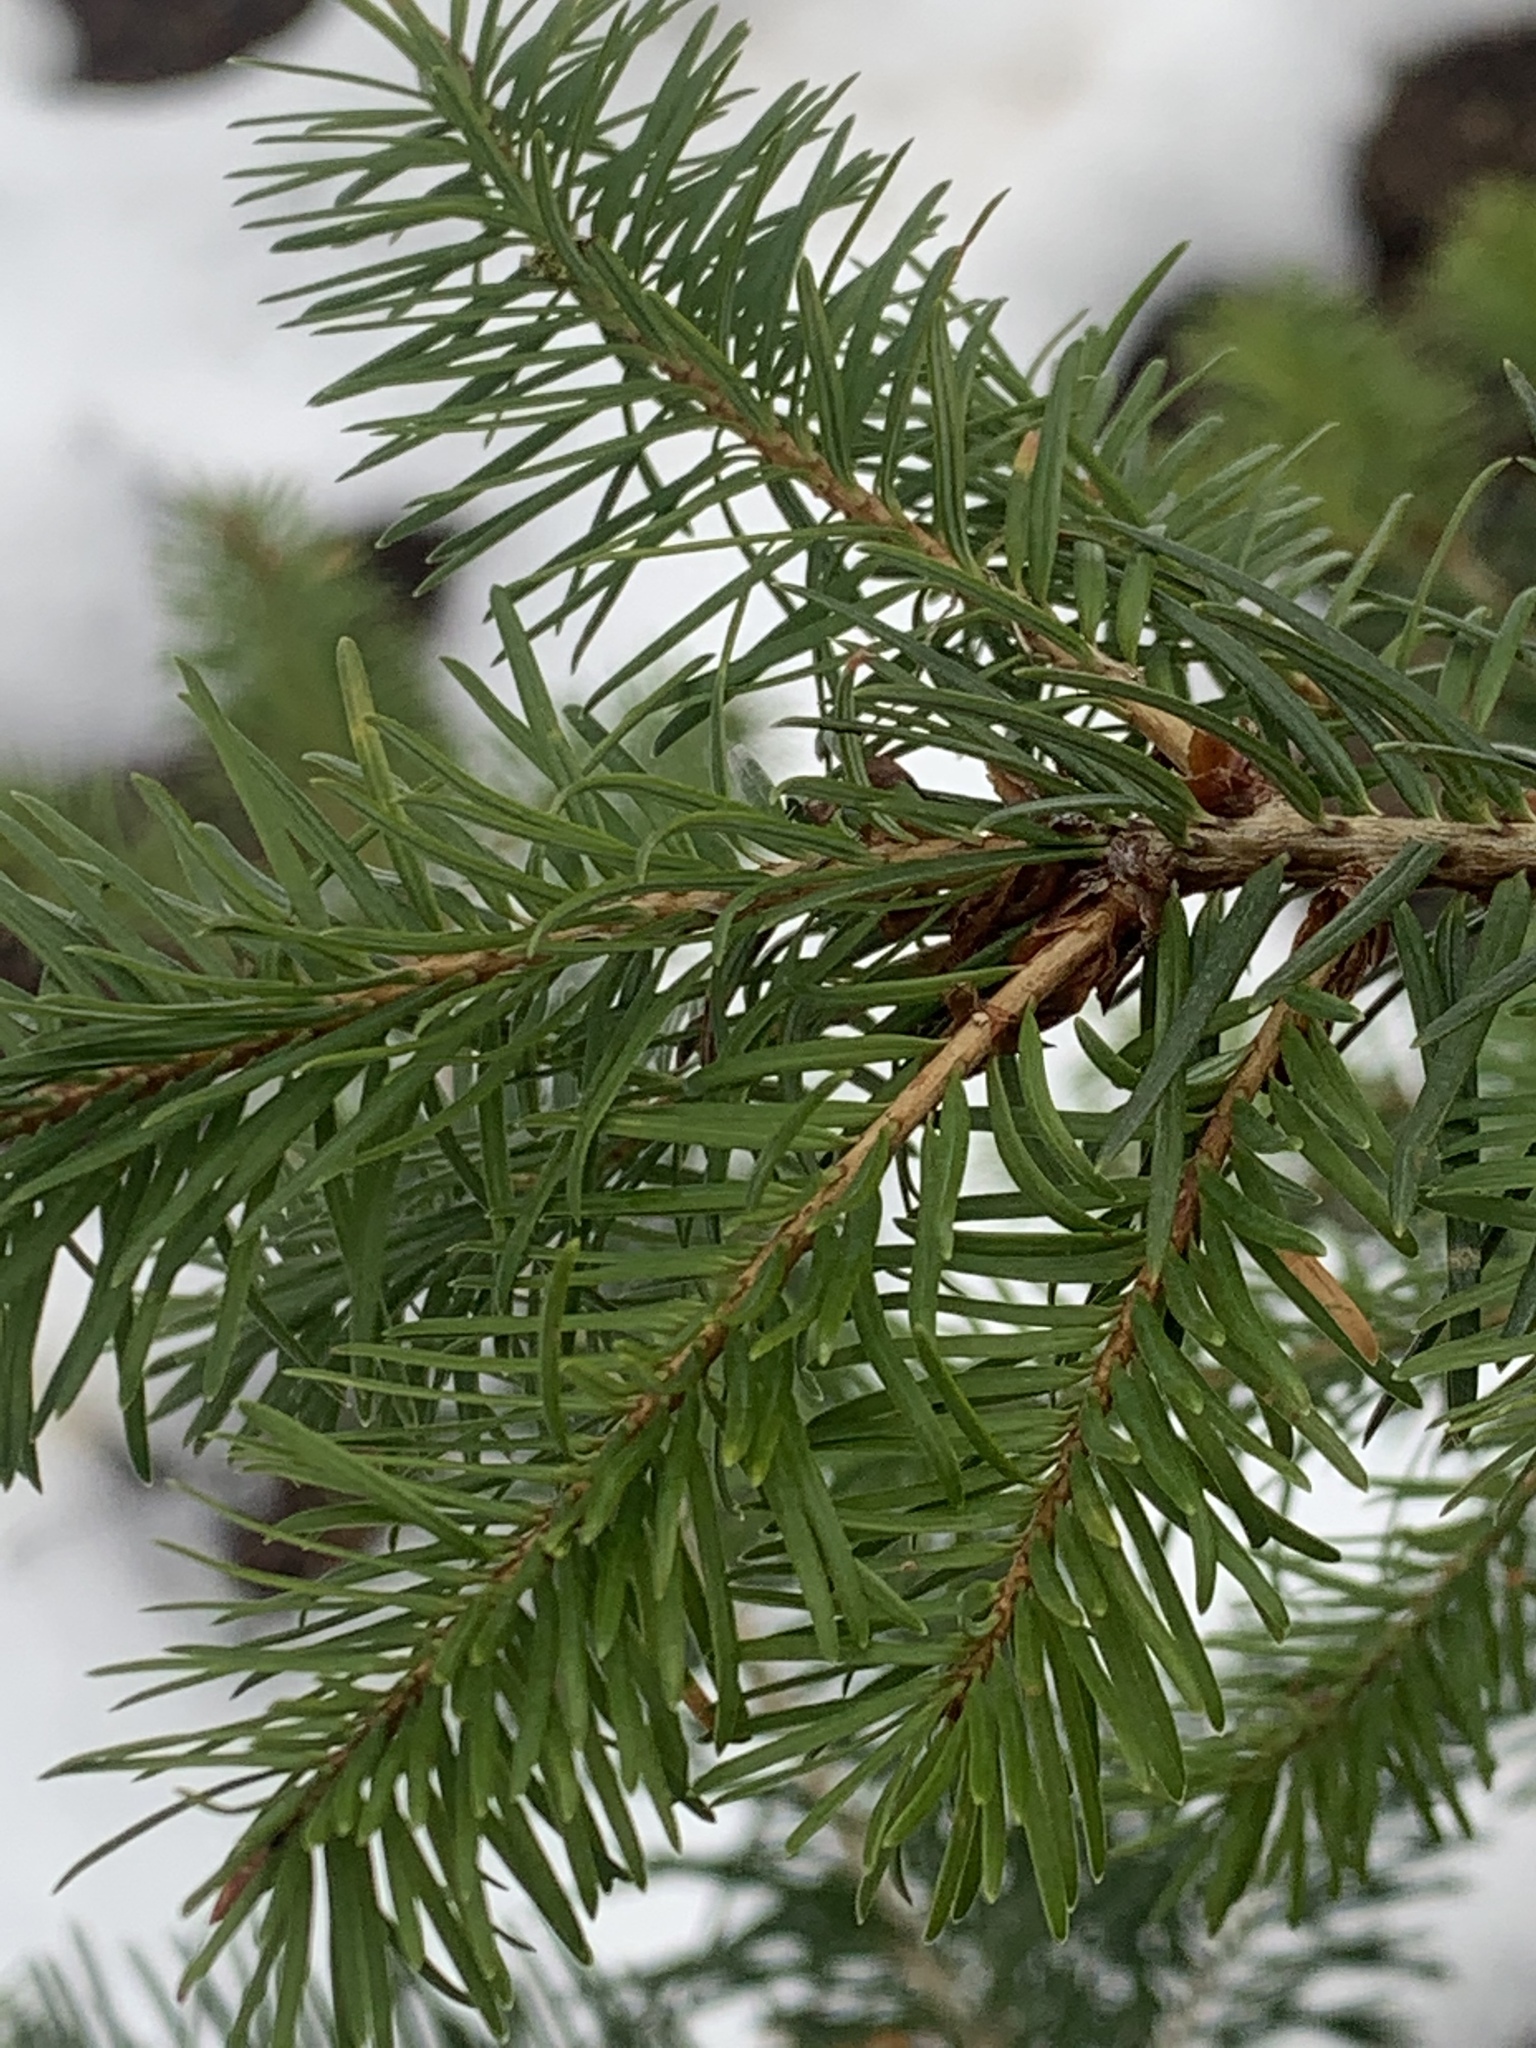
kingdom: Plantae
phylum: Tracheophyta
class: Pinopsida
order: Pinales
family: Pinaceae
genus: Pseudotsuga
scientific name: Pseudotsuga menziesii
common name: Douglas fir
